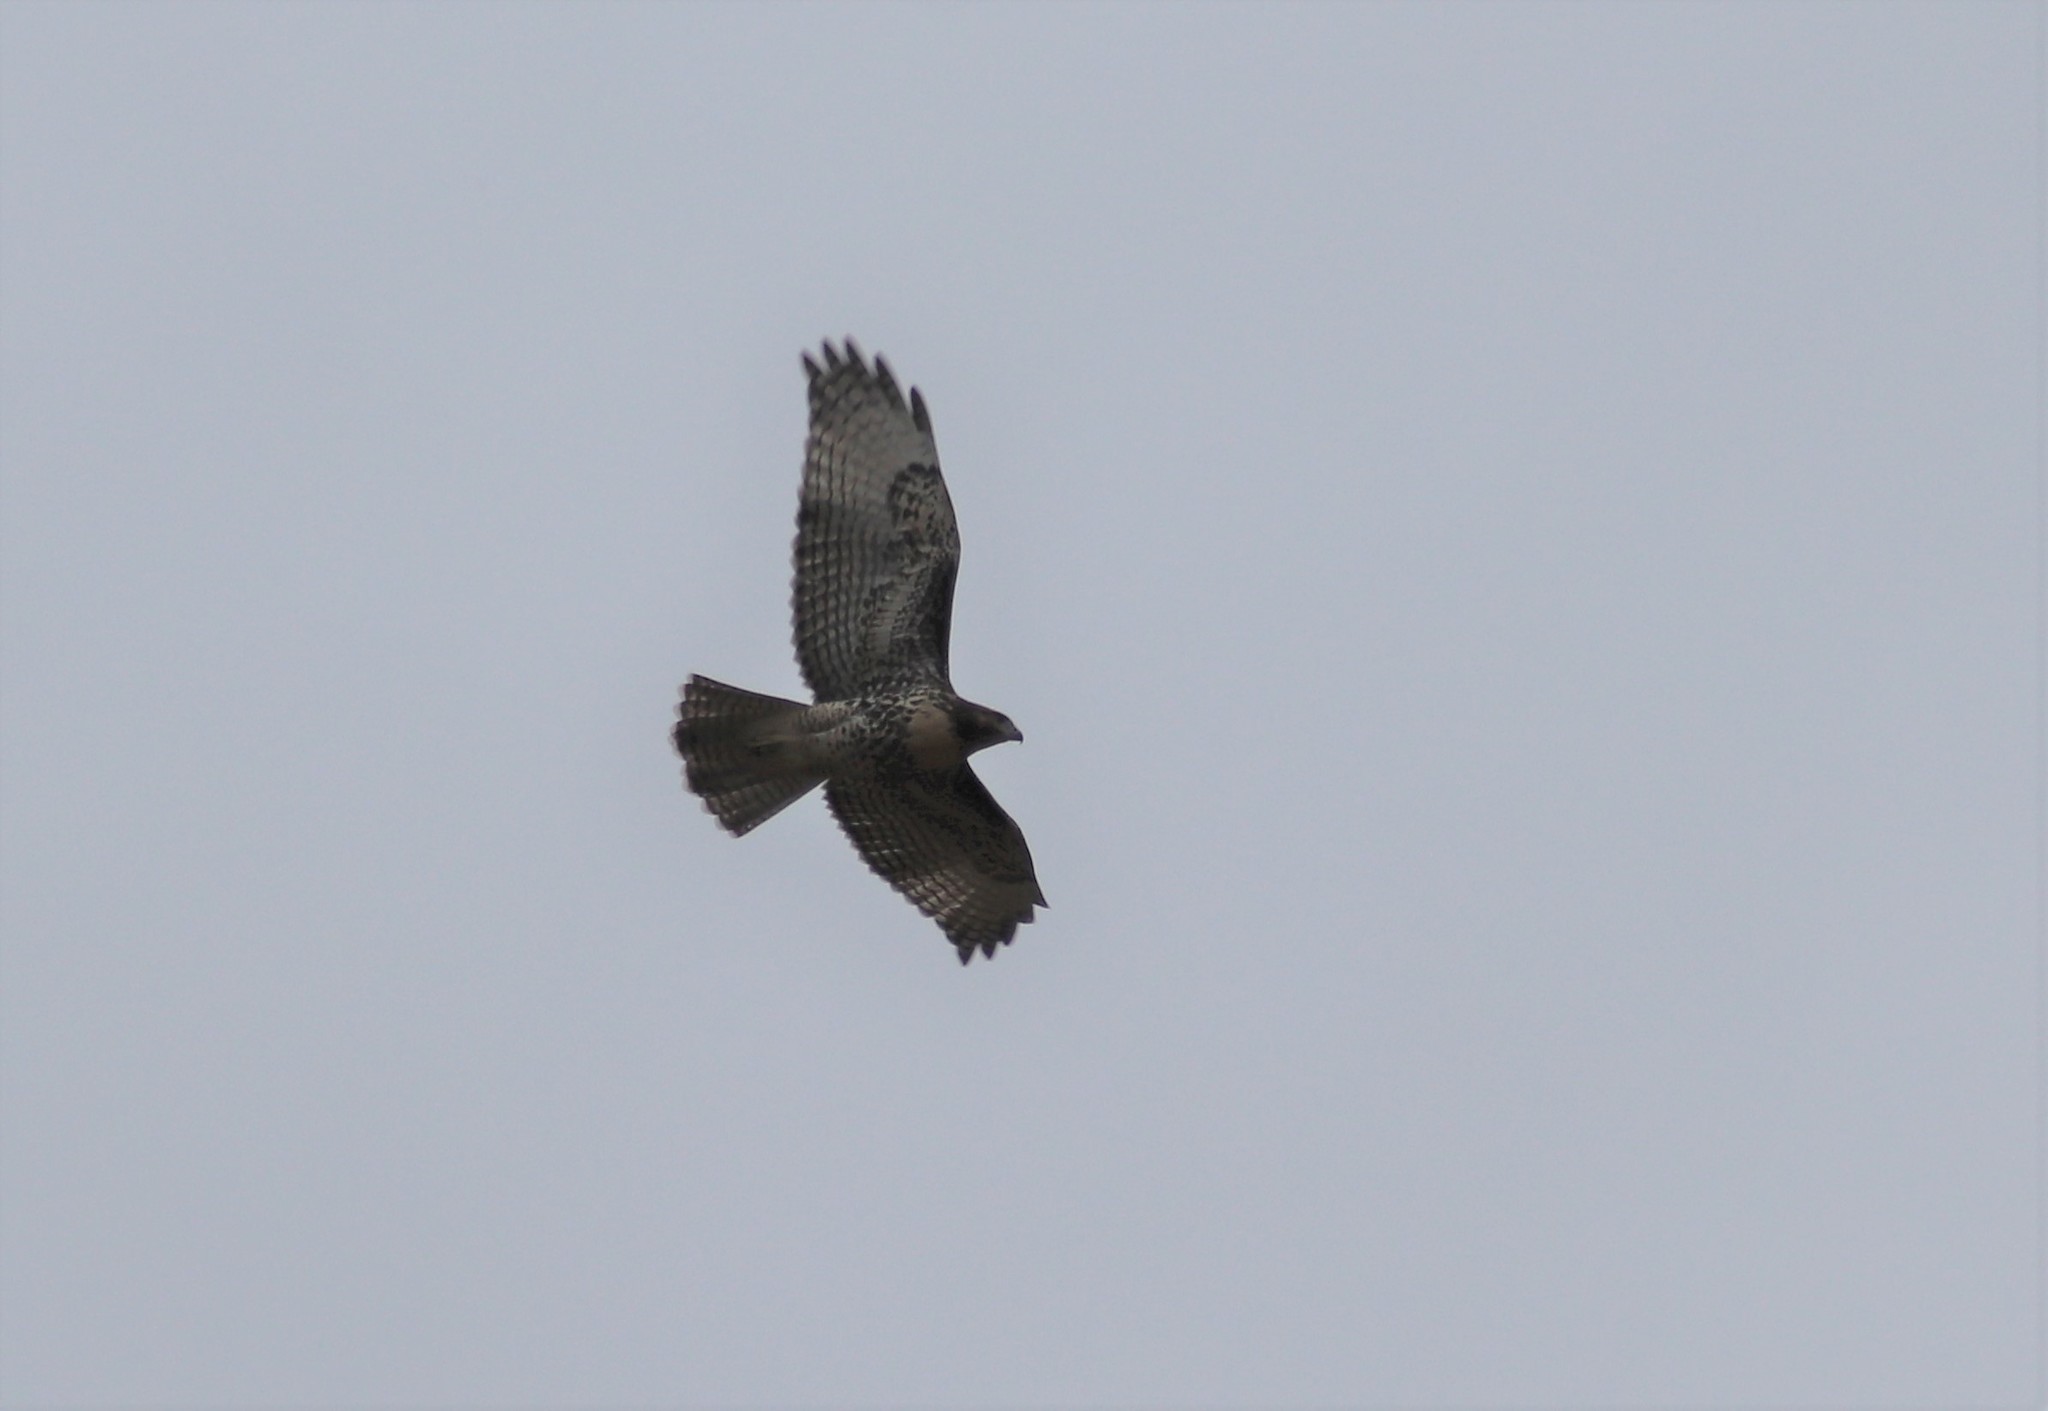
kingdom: Animalia
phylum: Chordata
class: Aves
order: Accipitriformes
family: Accipitridae
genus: Buteo
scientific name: Buteo jamaicensis
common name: Red-tailed hawk
